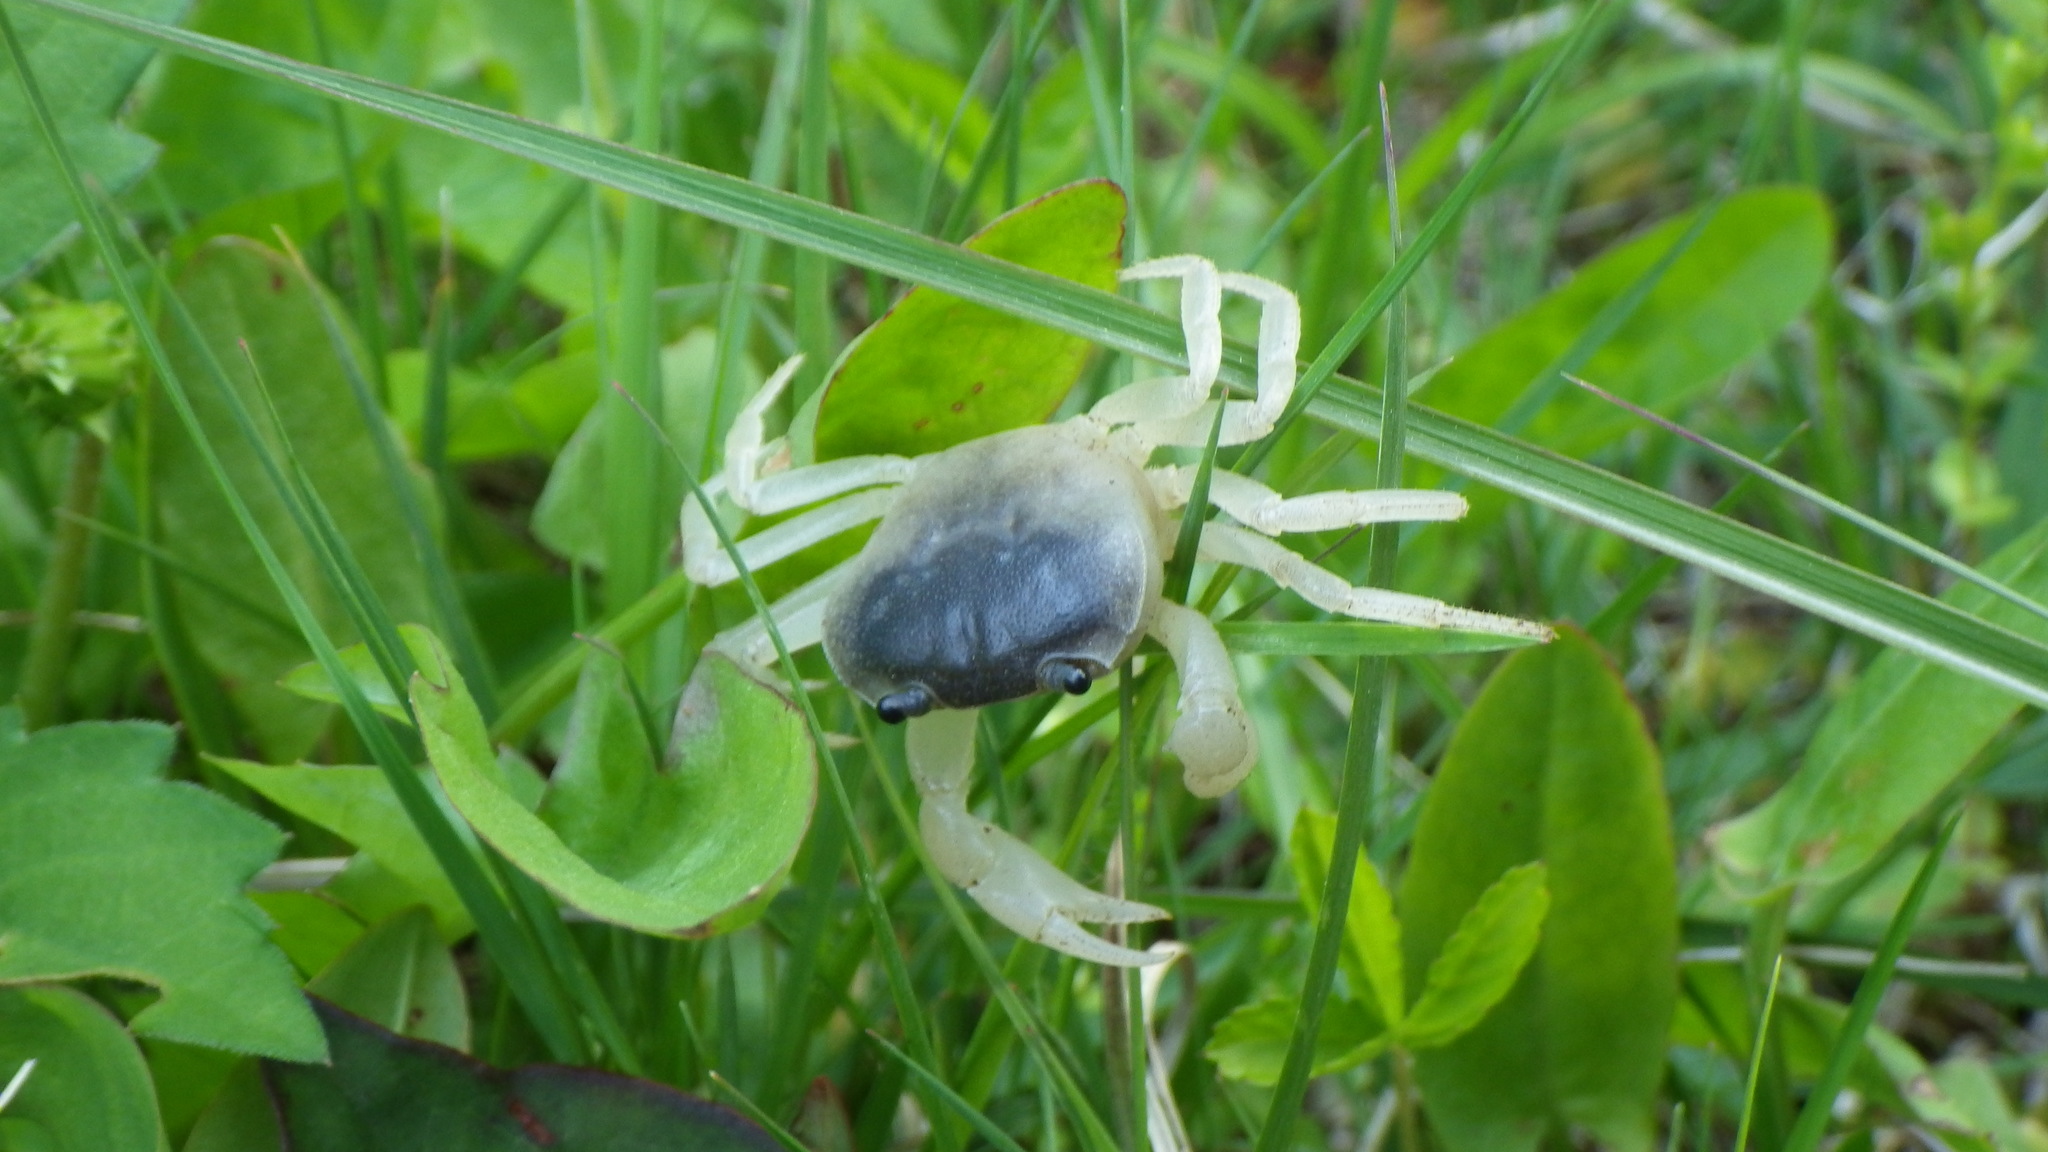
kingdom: Animalia
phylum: Arthropoda
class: Malacostraca
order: Decapoda
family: Potamidae
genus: Geothelphusa
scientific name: Geothelphusa dehaani
